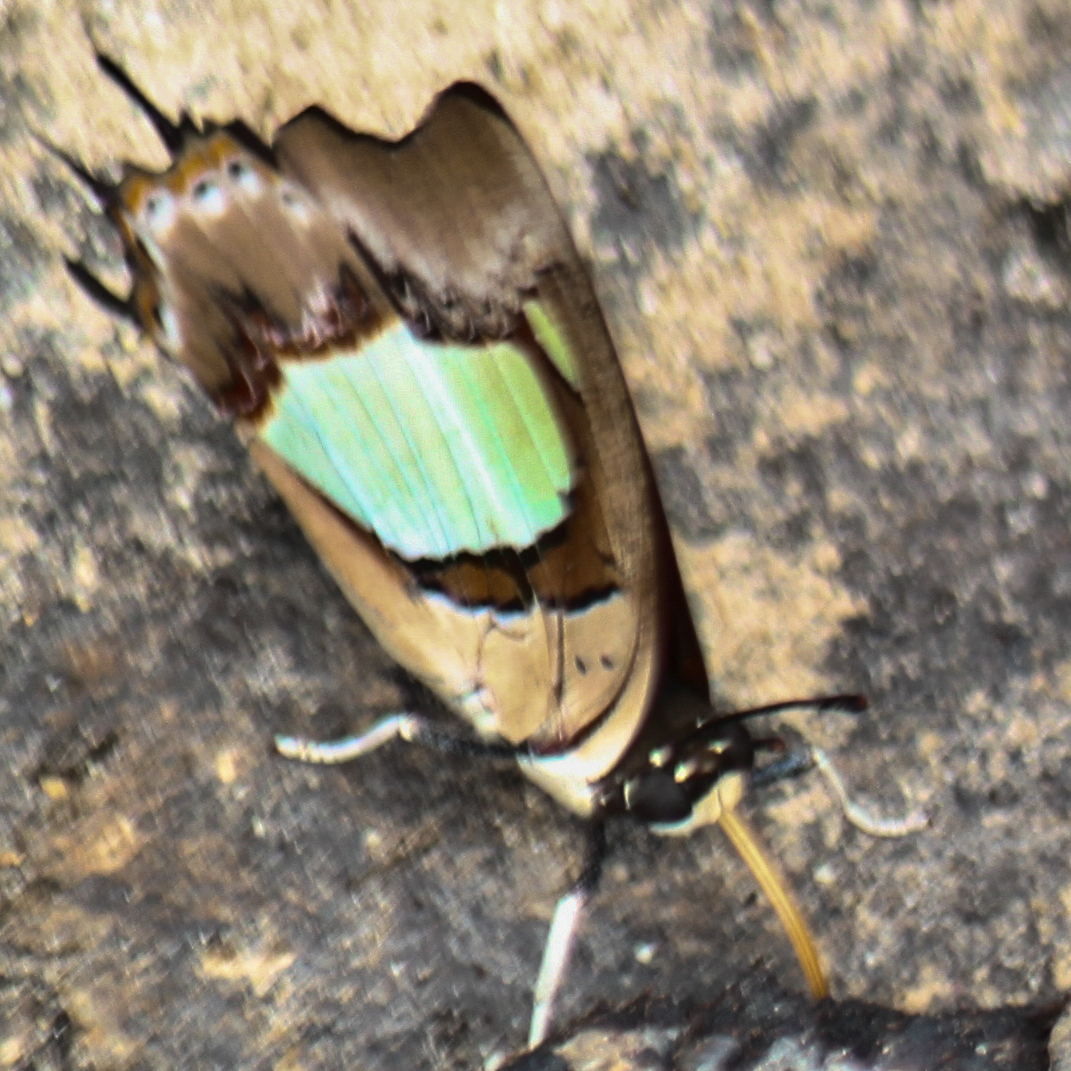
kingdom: Animalia
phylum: Arthropoda
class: Insecta
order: Lepidoptera
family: Nymphalidae
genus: Polyura
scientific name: Polyura athamas
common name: Common nawab
